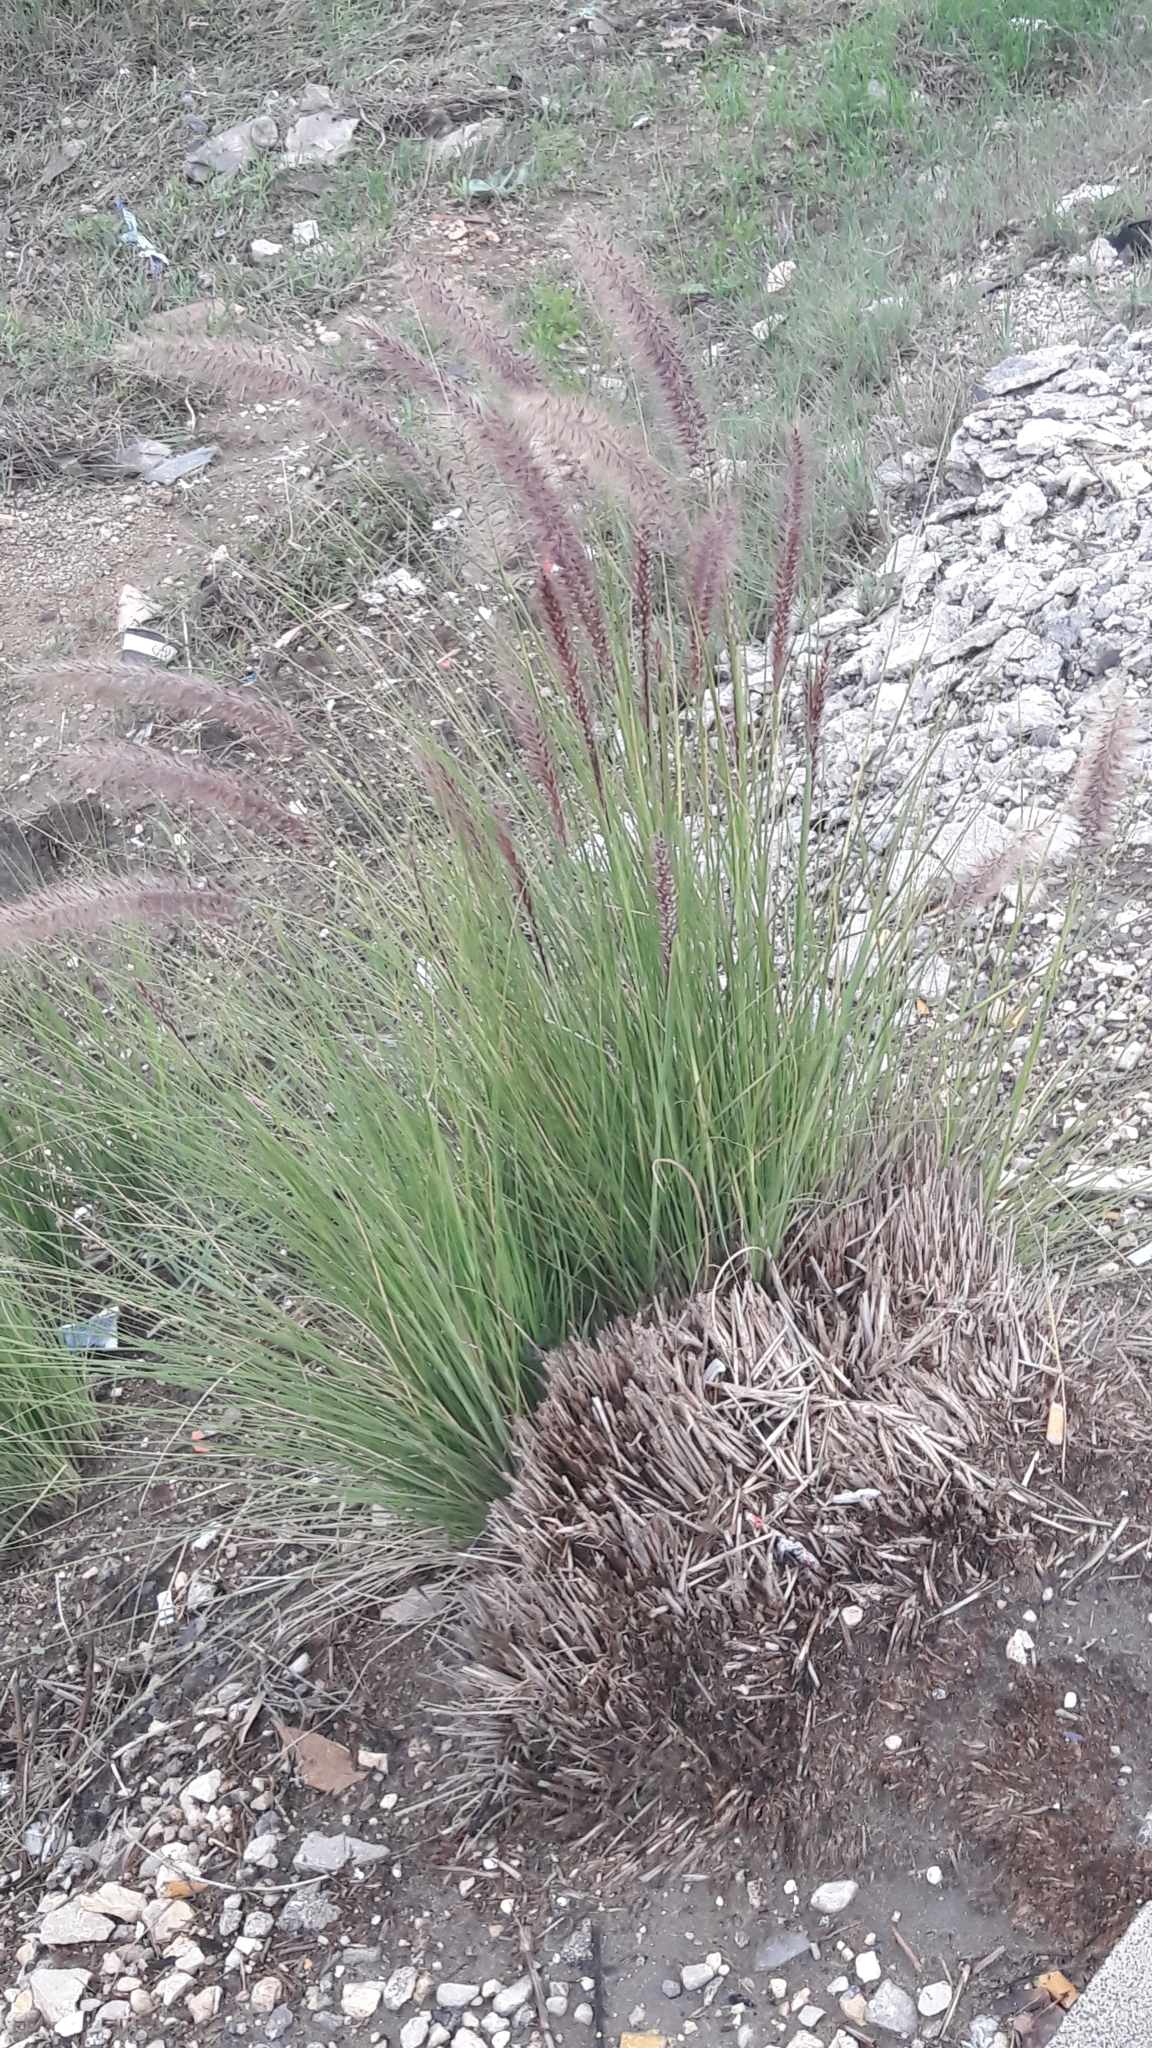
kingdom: Plantae
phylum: Tracheophyta
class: Liliopsida
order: Poales
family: Poaceae
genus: Cenchrus
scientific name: Cenchrus setaceus
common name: Crimson fountaingrass
